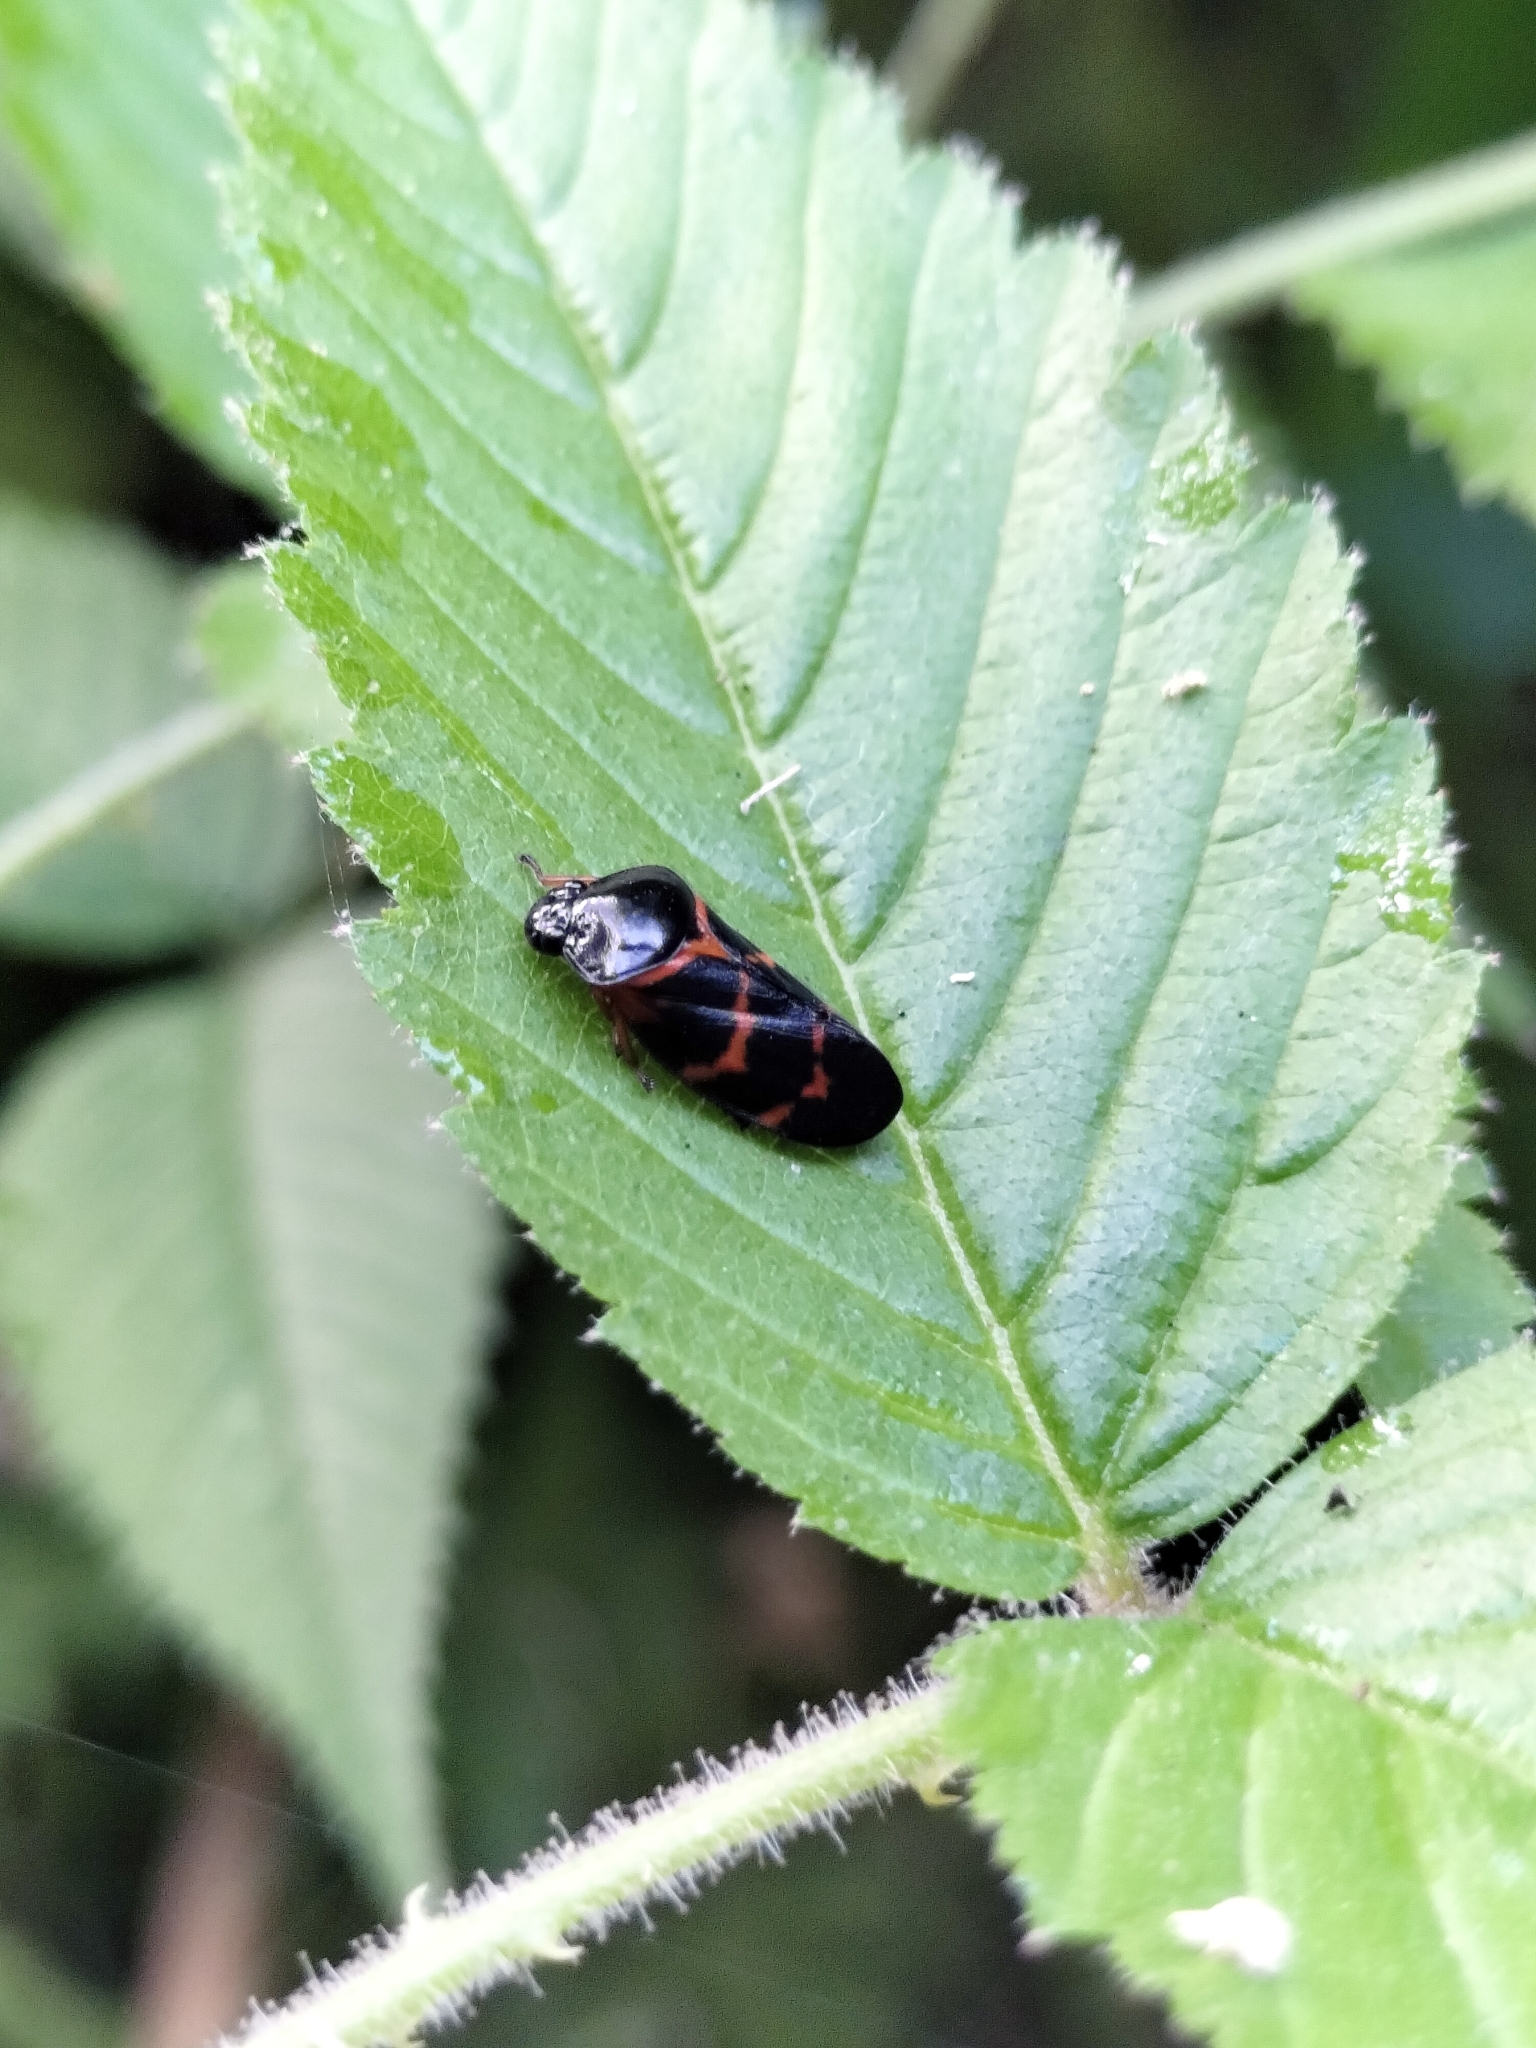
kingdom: Animalia
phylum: Arthropoda
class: Insecta
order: Hemiptera
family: Cercopidae
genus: Okiscarta
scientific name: Okiscarta uchidae
